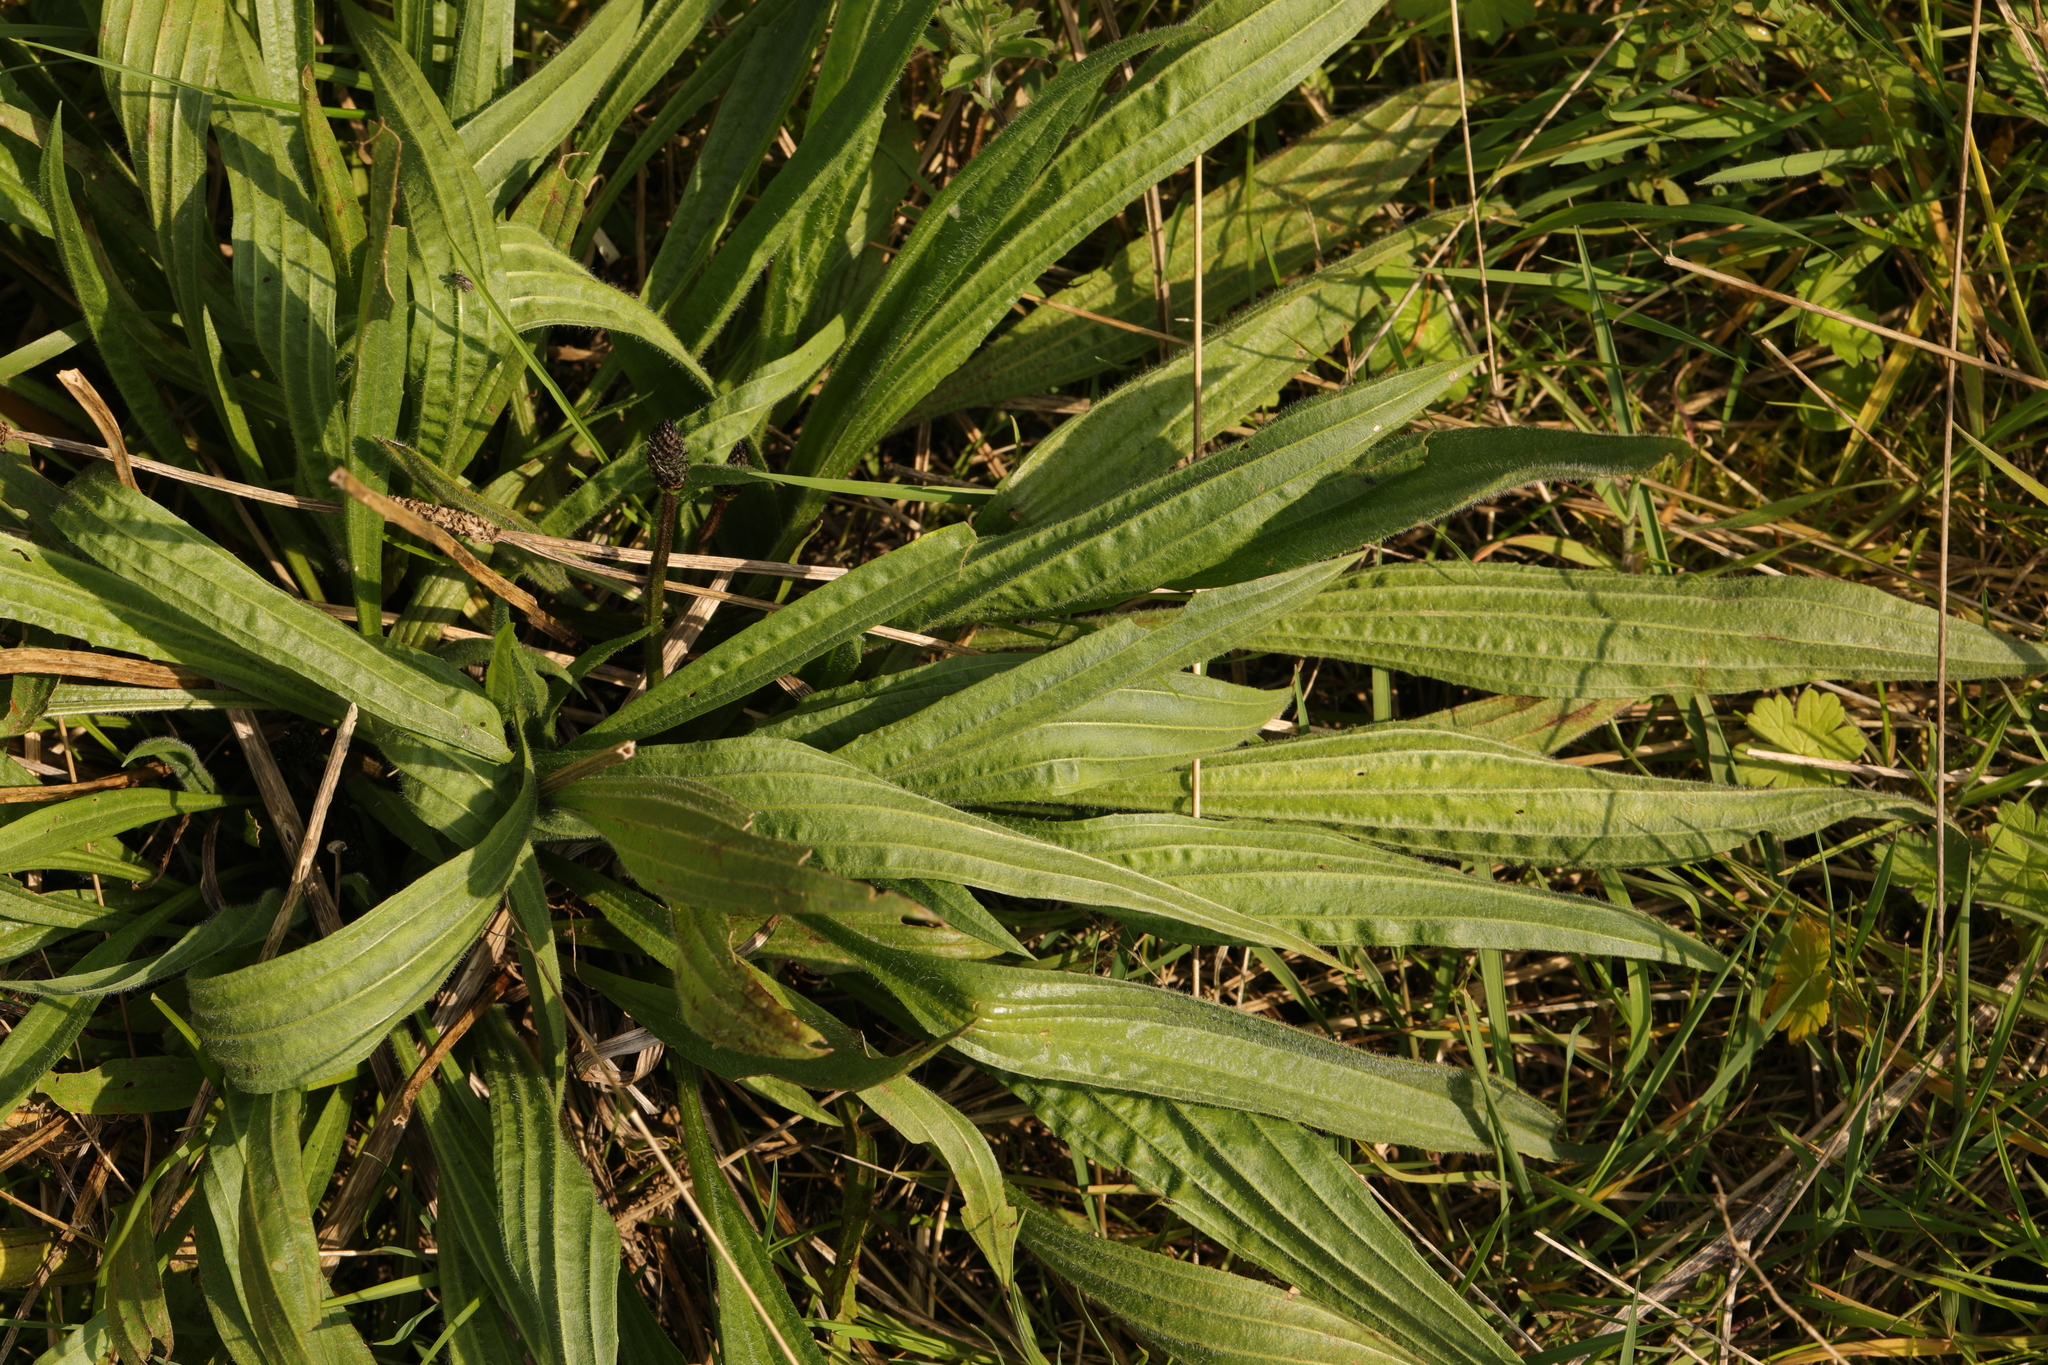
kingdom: Plantae
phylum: Tracheophyta
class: Magnoliopsida
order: Lamiales
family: Plantaginaceae
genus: Plantago
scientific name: Plantago lanceolata
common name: Ribwort plantain
